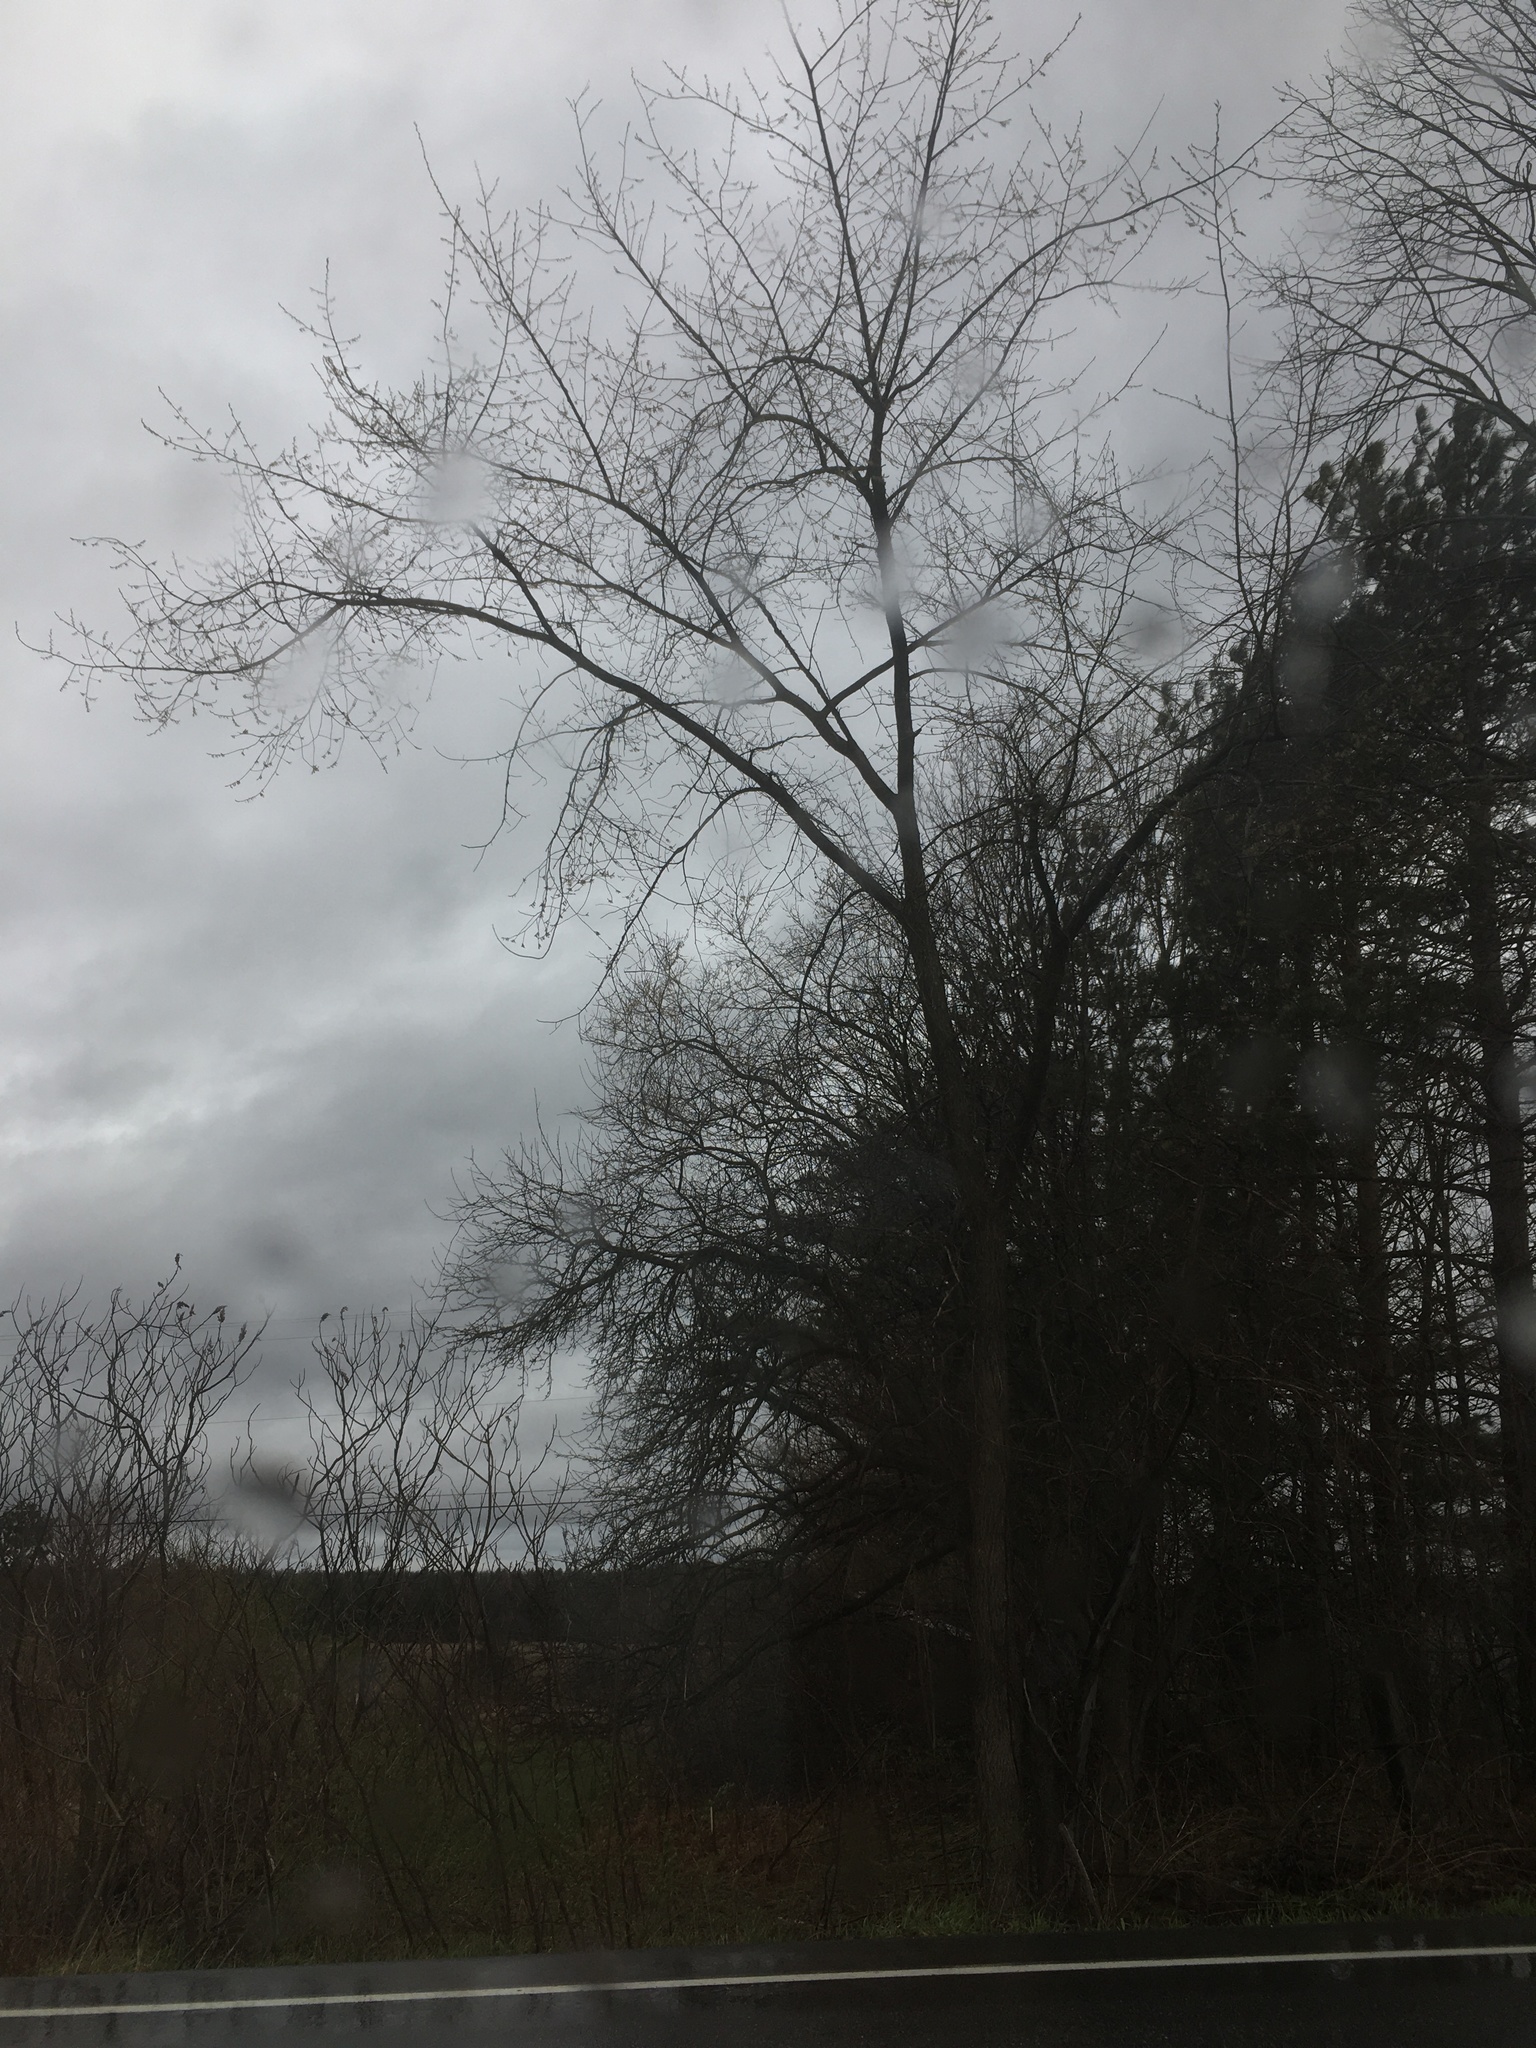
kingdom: Plantae
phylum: Tracheophyta
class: Magnoliopsida
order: Rosales
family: Ulmaceae
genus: Ulmus
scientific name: Ulmus americana
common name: American elm
